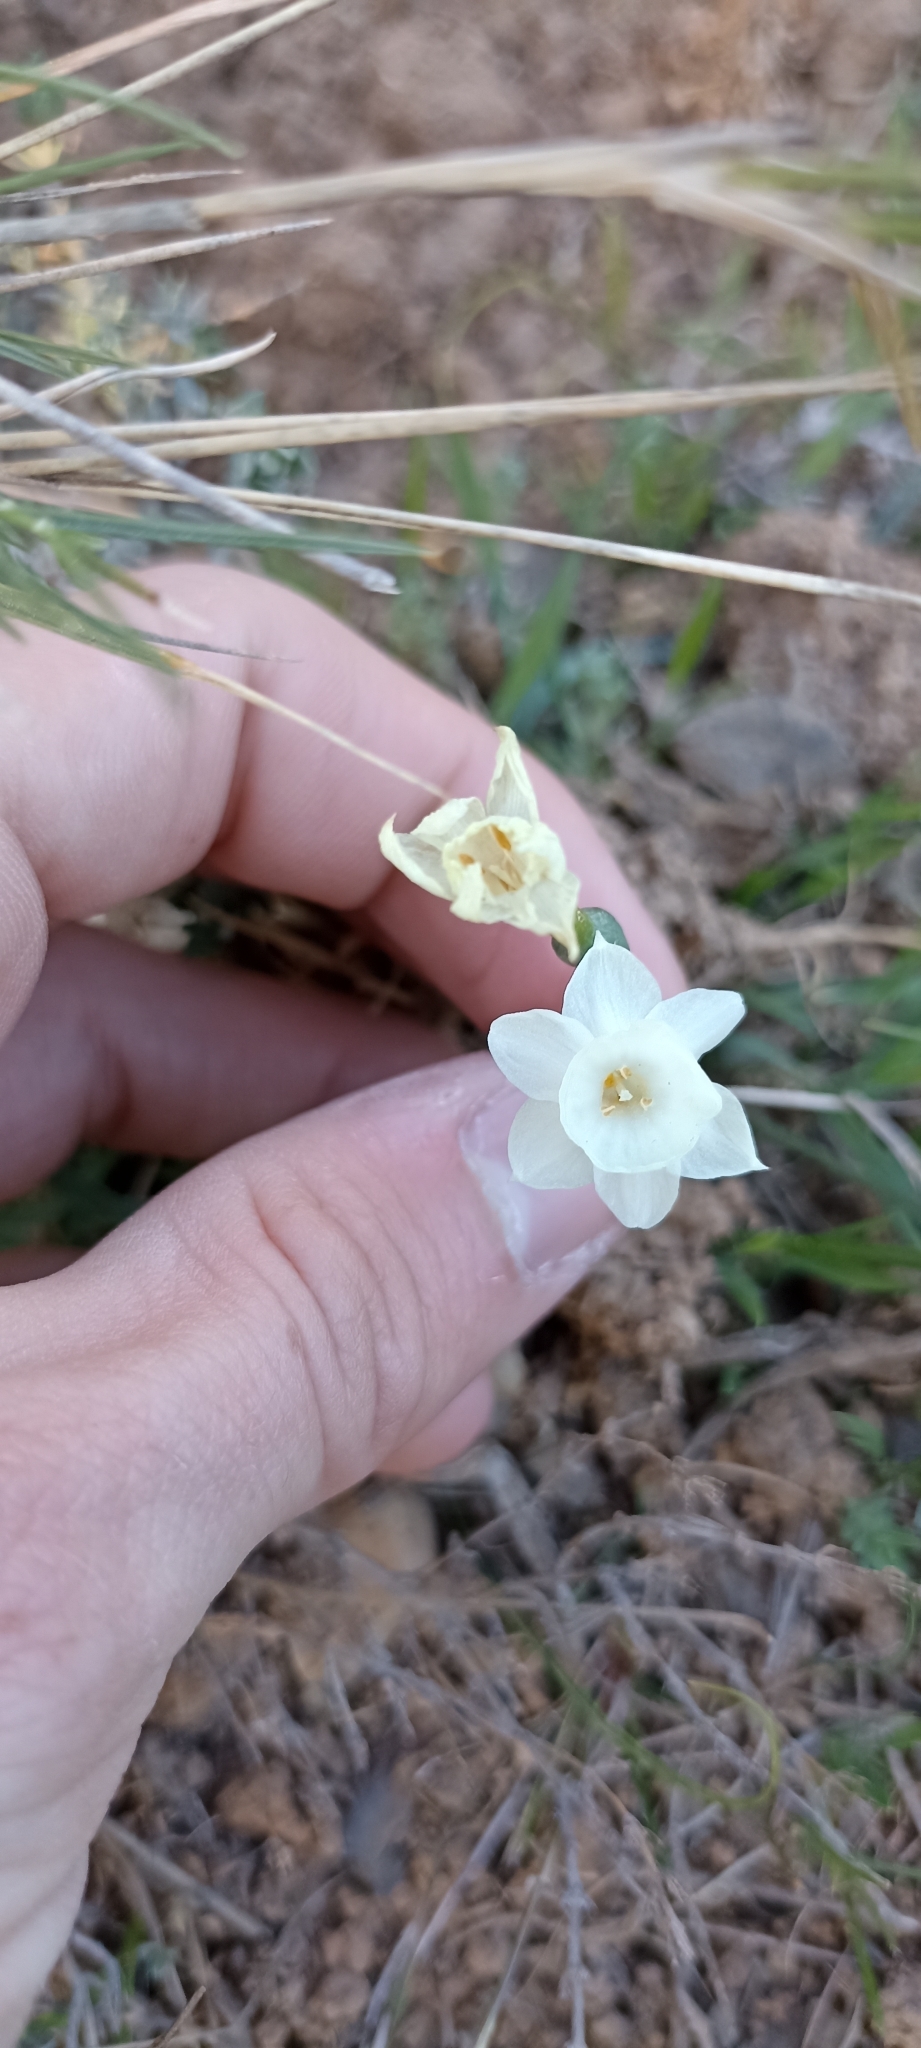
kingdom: Plantae
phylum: Tracheophyta
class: Liliopsida
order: Asparagales
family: Amaryllidaceae
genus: Narcissus
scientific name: Narcissus dubius
